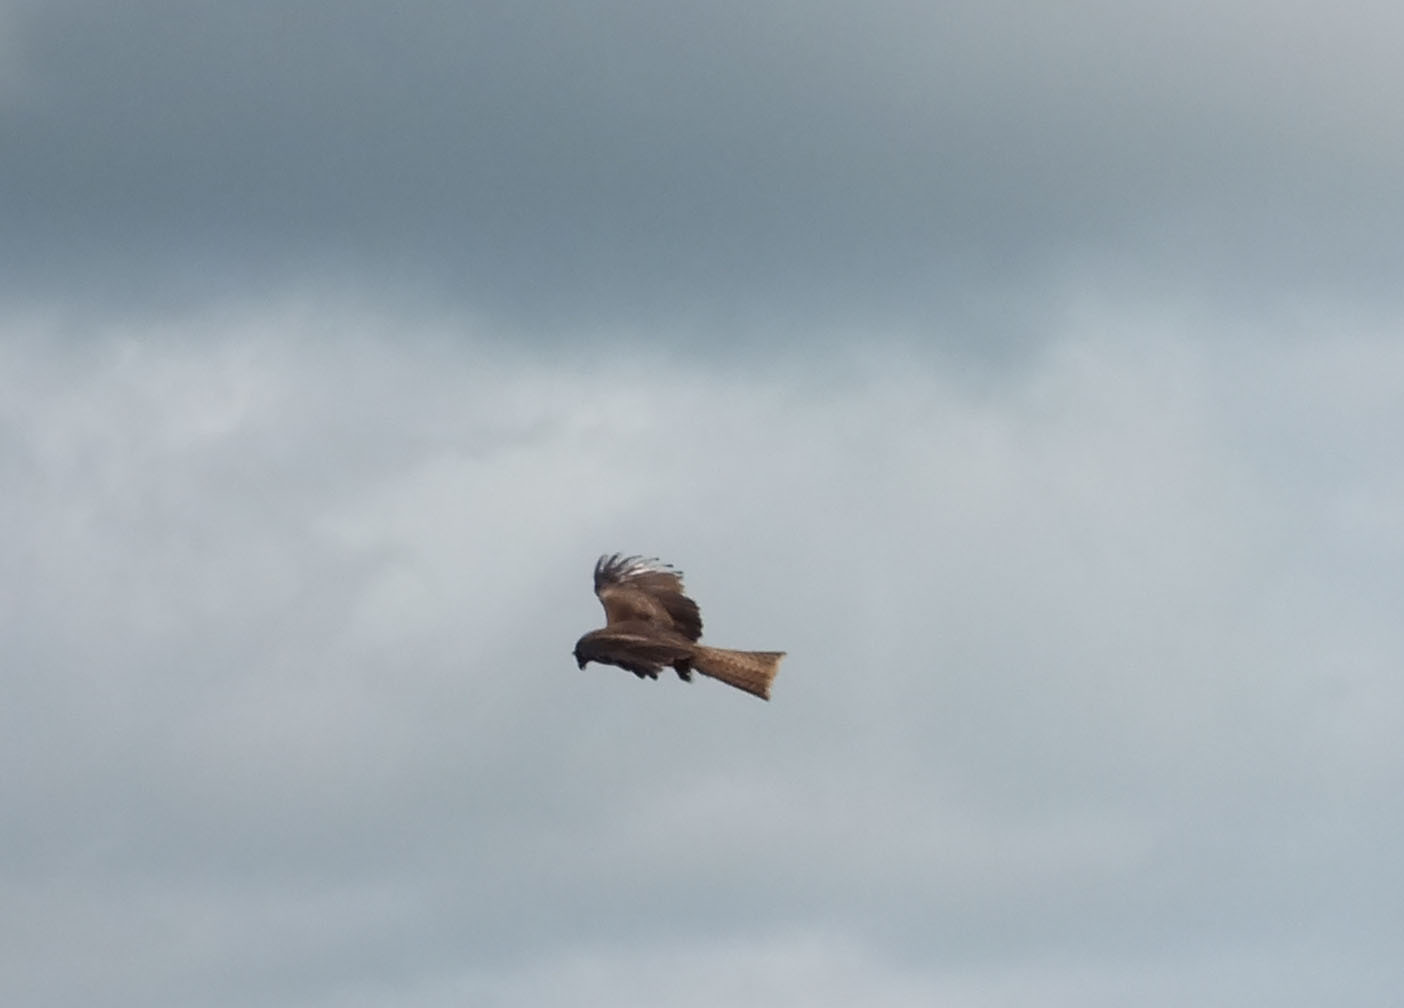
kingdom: Animalia
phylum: Chordata
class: Aves
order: Accipitriformes
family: Accipitridae
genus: Milvus
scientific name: Milvus migrans
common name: Black kite
